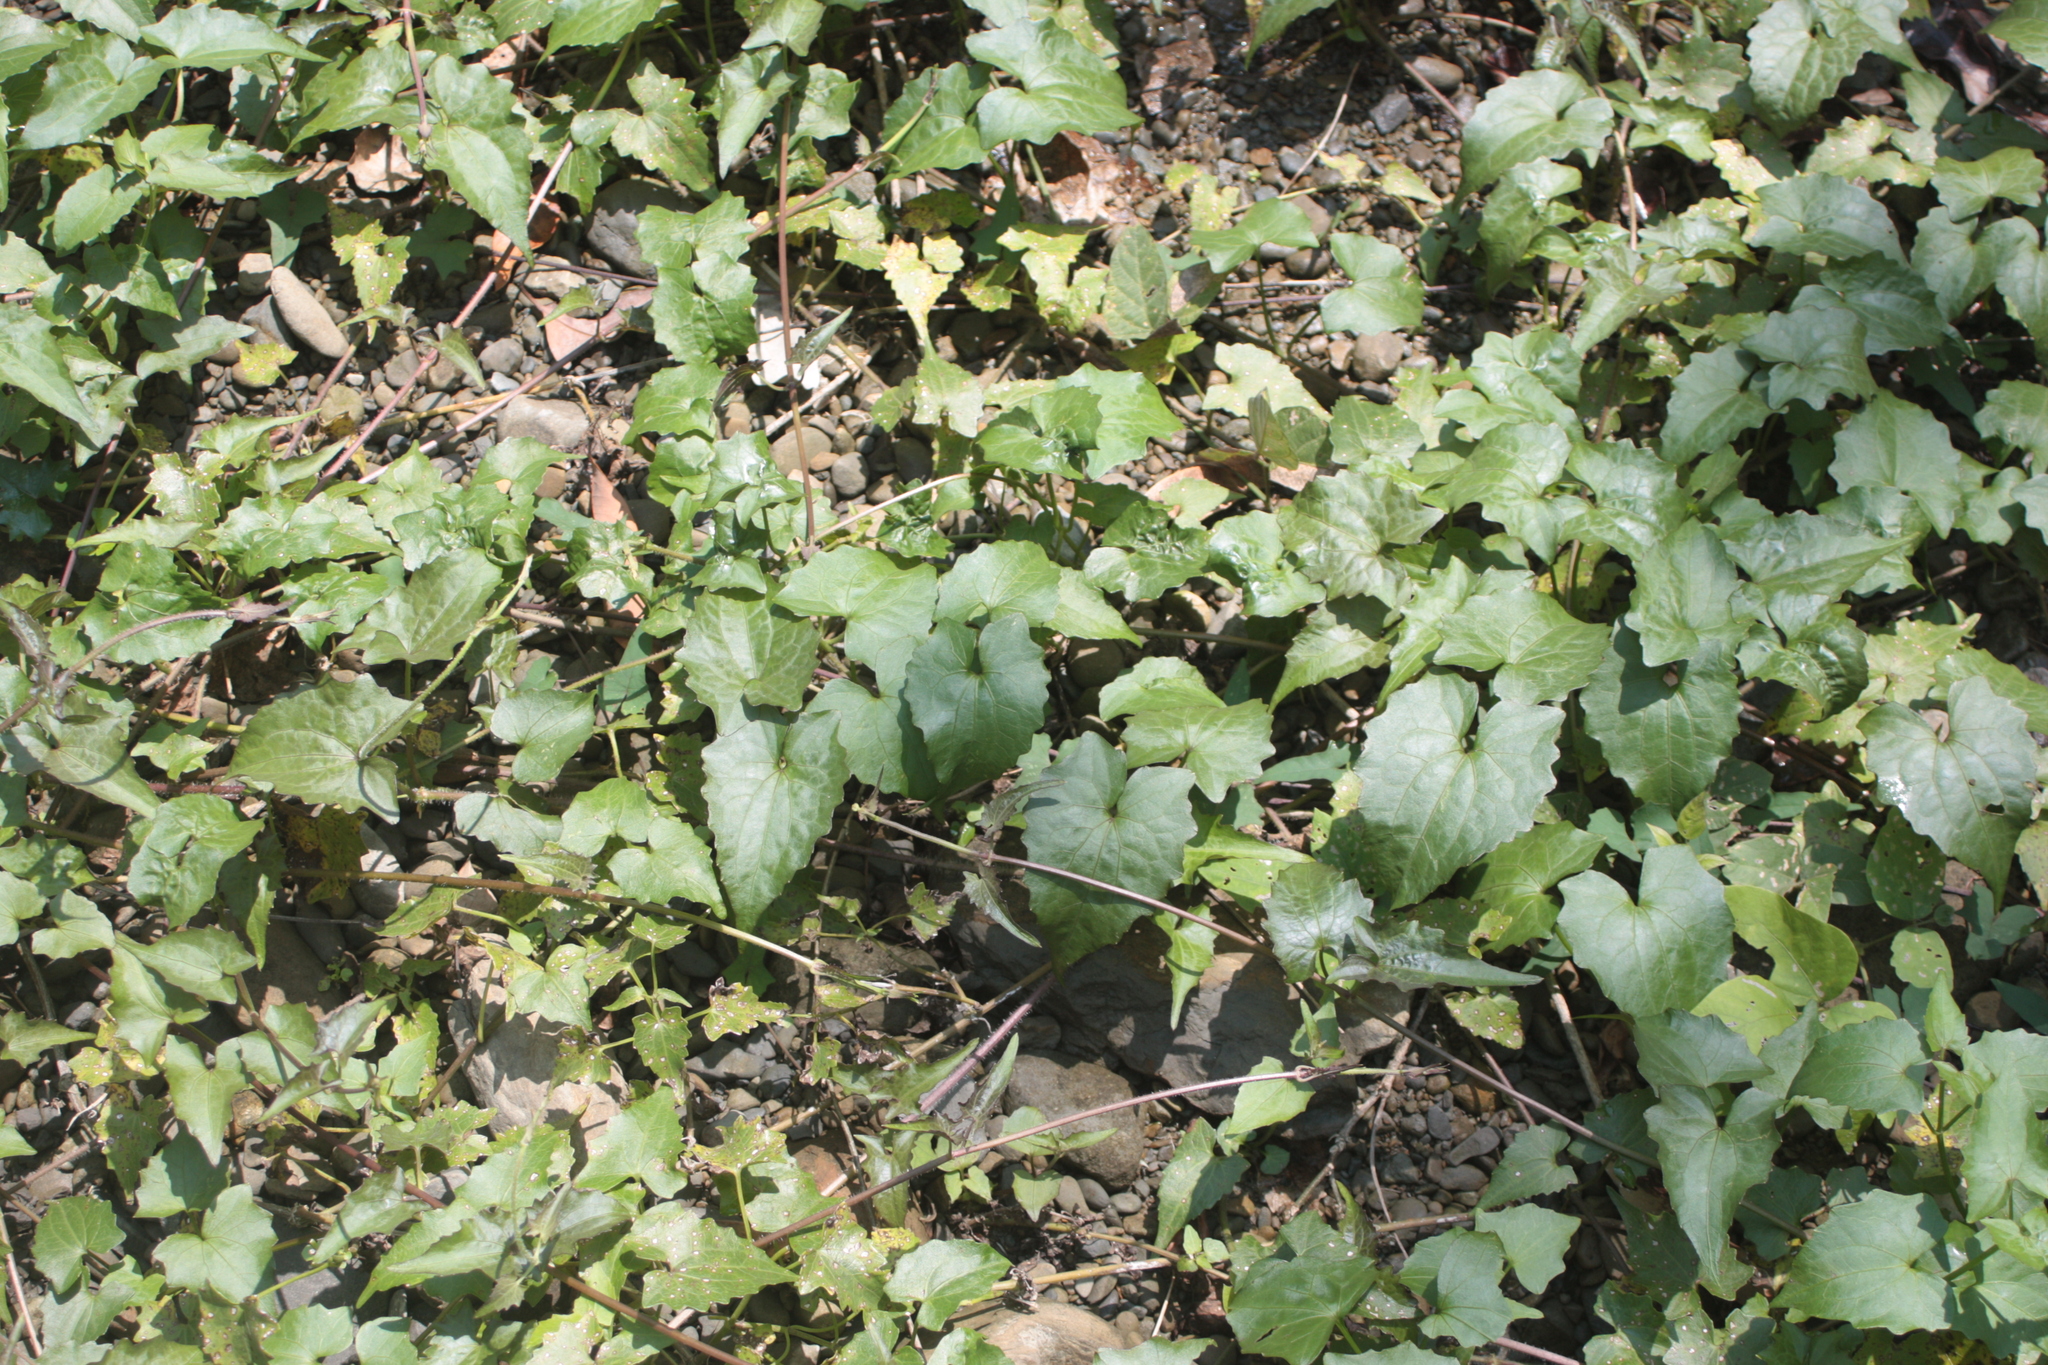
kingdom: Plantae
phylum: Tracheophyta
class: Magnoliopsida
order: Asterales
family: Asteraceae
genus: Mikania
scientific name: Mikania micrantha
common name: Mile-a-minute
